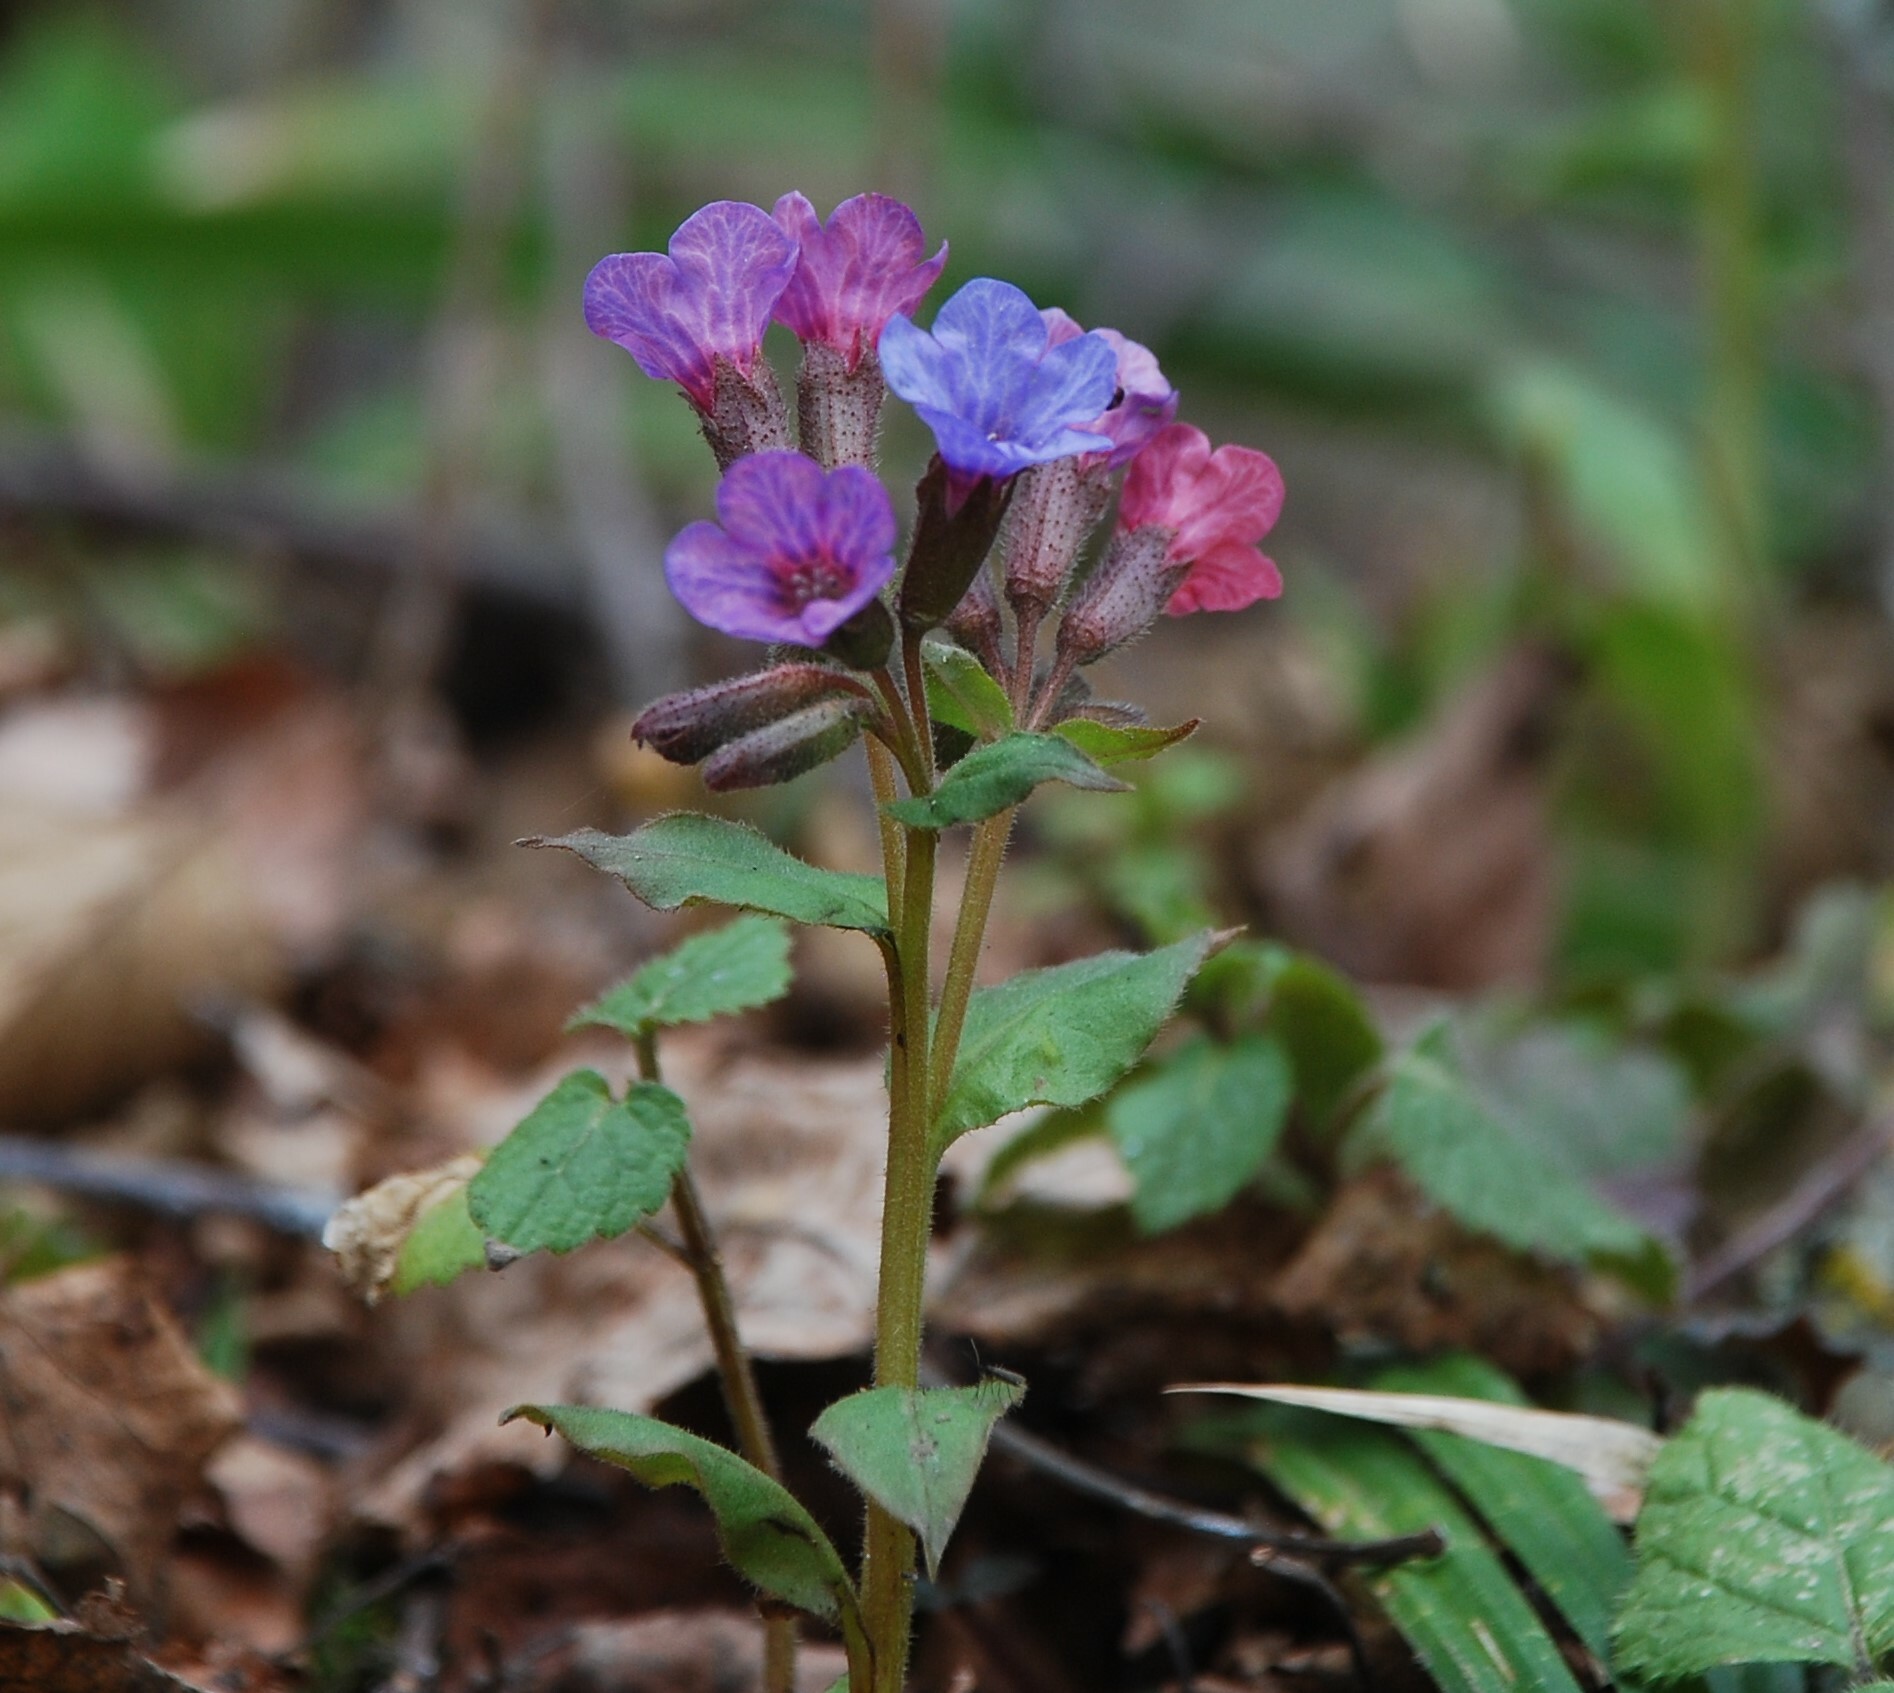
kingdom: Plantae
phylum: Tracheophyta
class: Magnoliopsida
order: Boraginales
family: Boraginaceae
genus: Pulmonaria
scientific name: Pulmonaria obscura
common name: Suffolk lungwort
